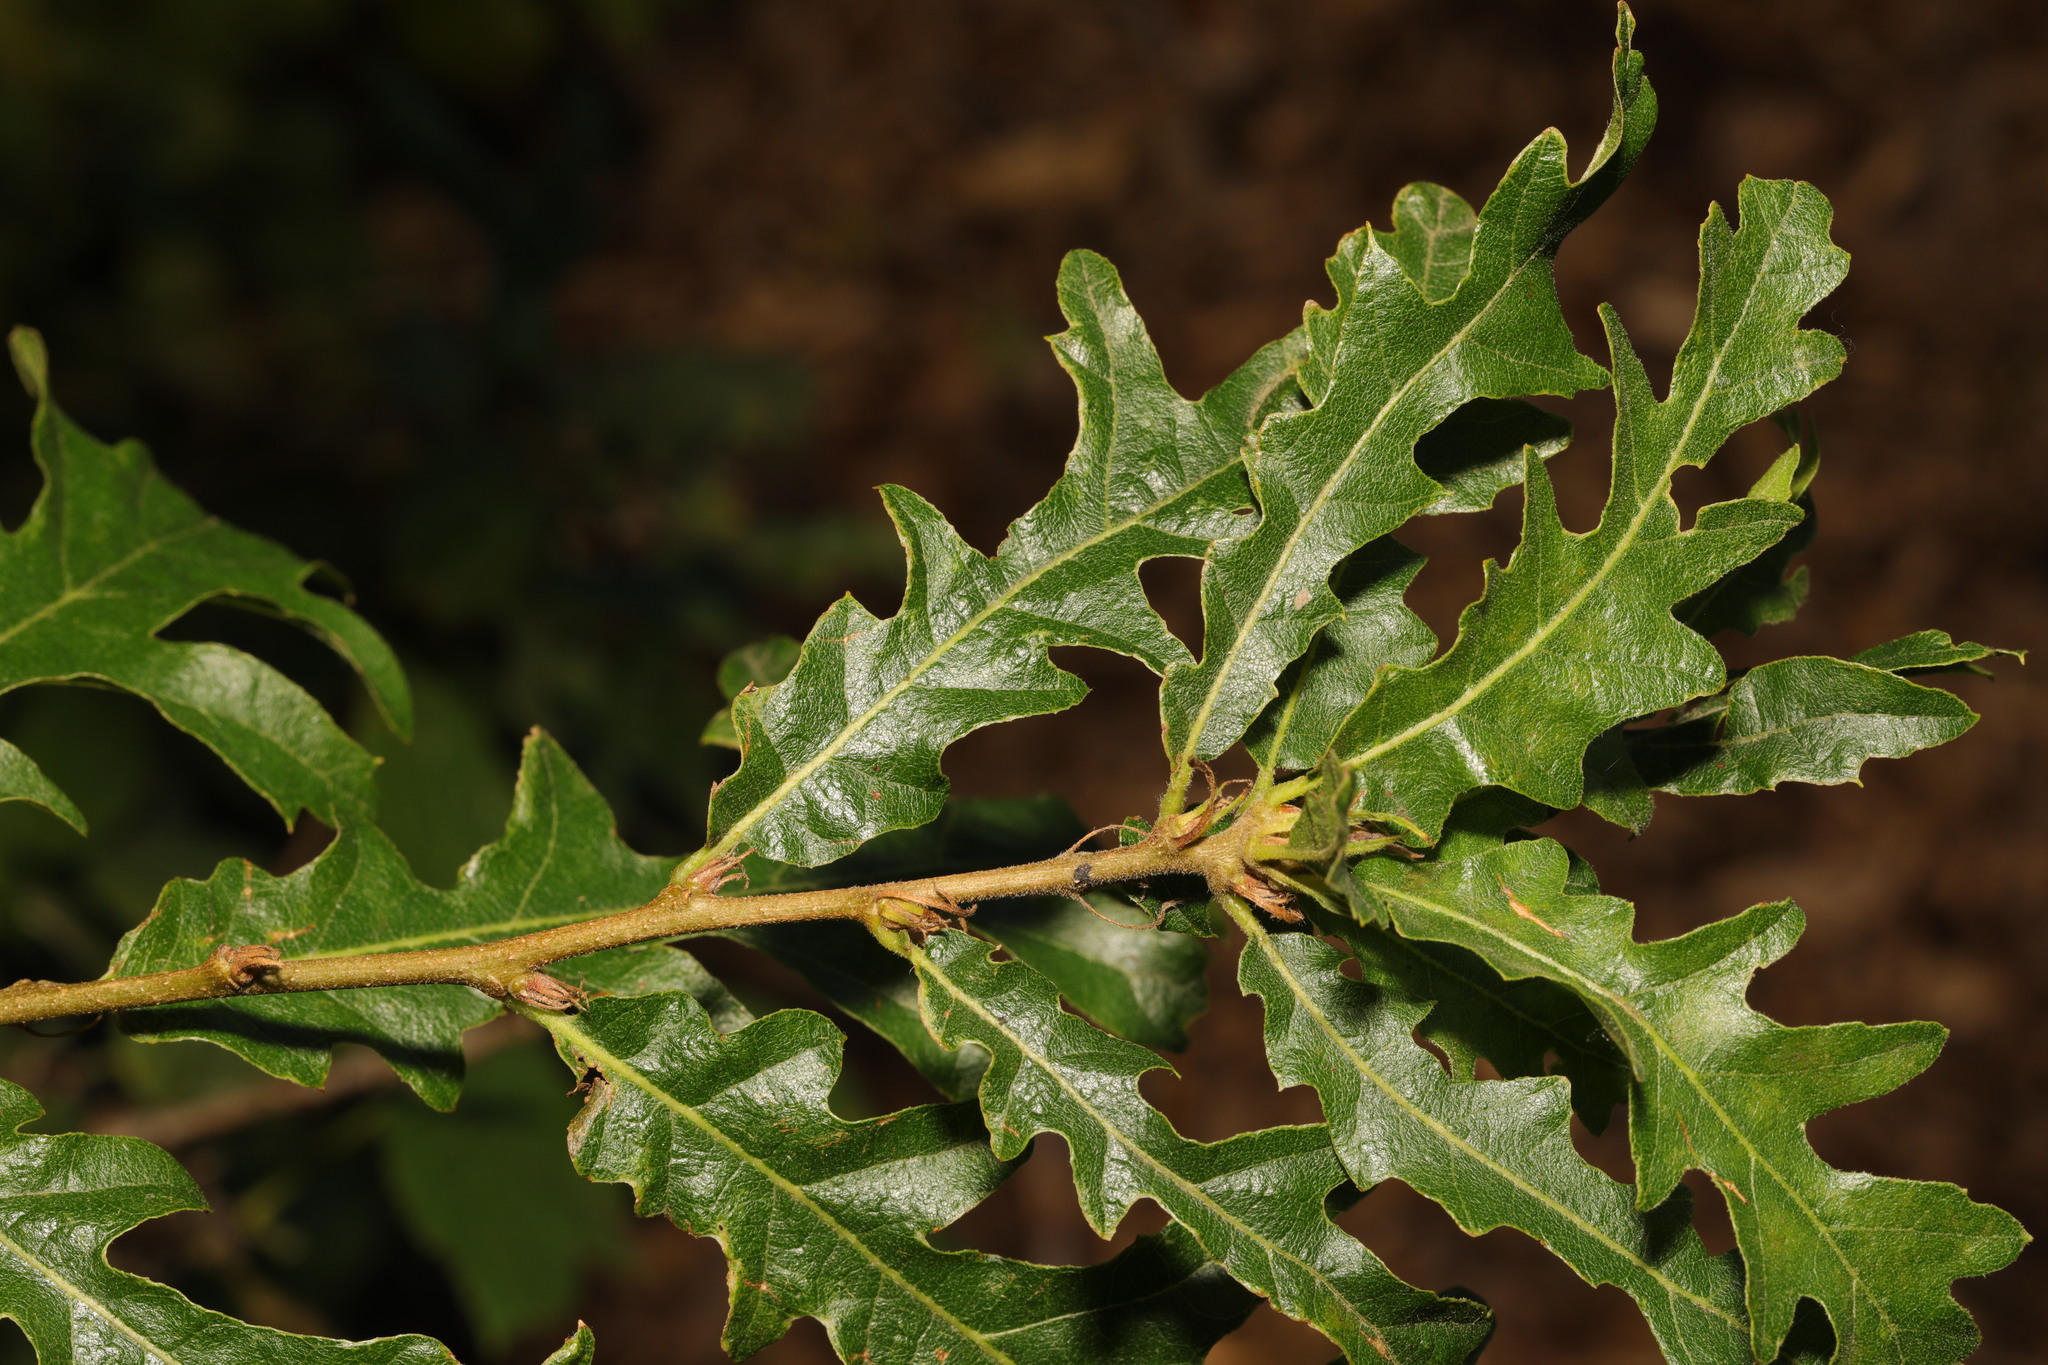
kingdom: Plantae
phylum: Tracheophyta
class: Magnoliopsida
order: Fagales
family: Fagaceae
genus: Quercus
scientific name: Quercus cerris
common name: Turkey oak
